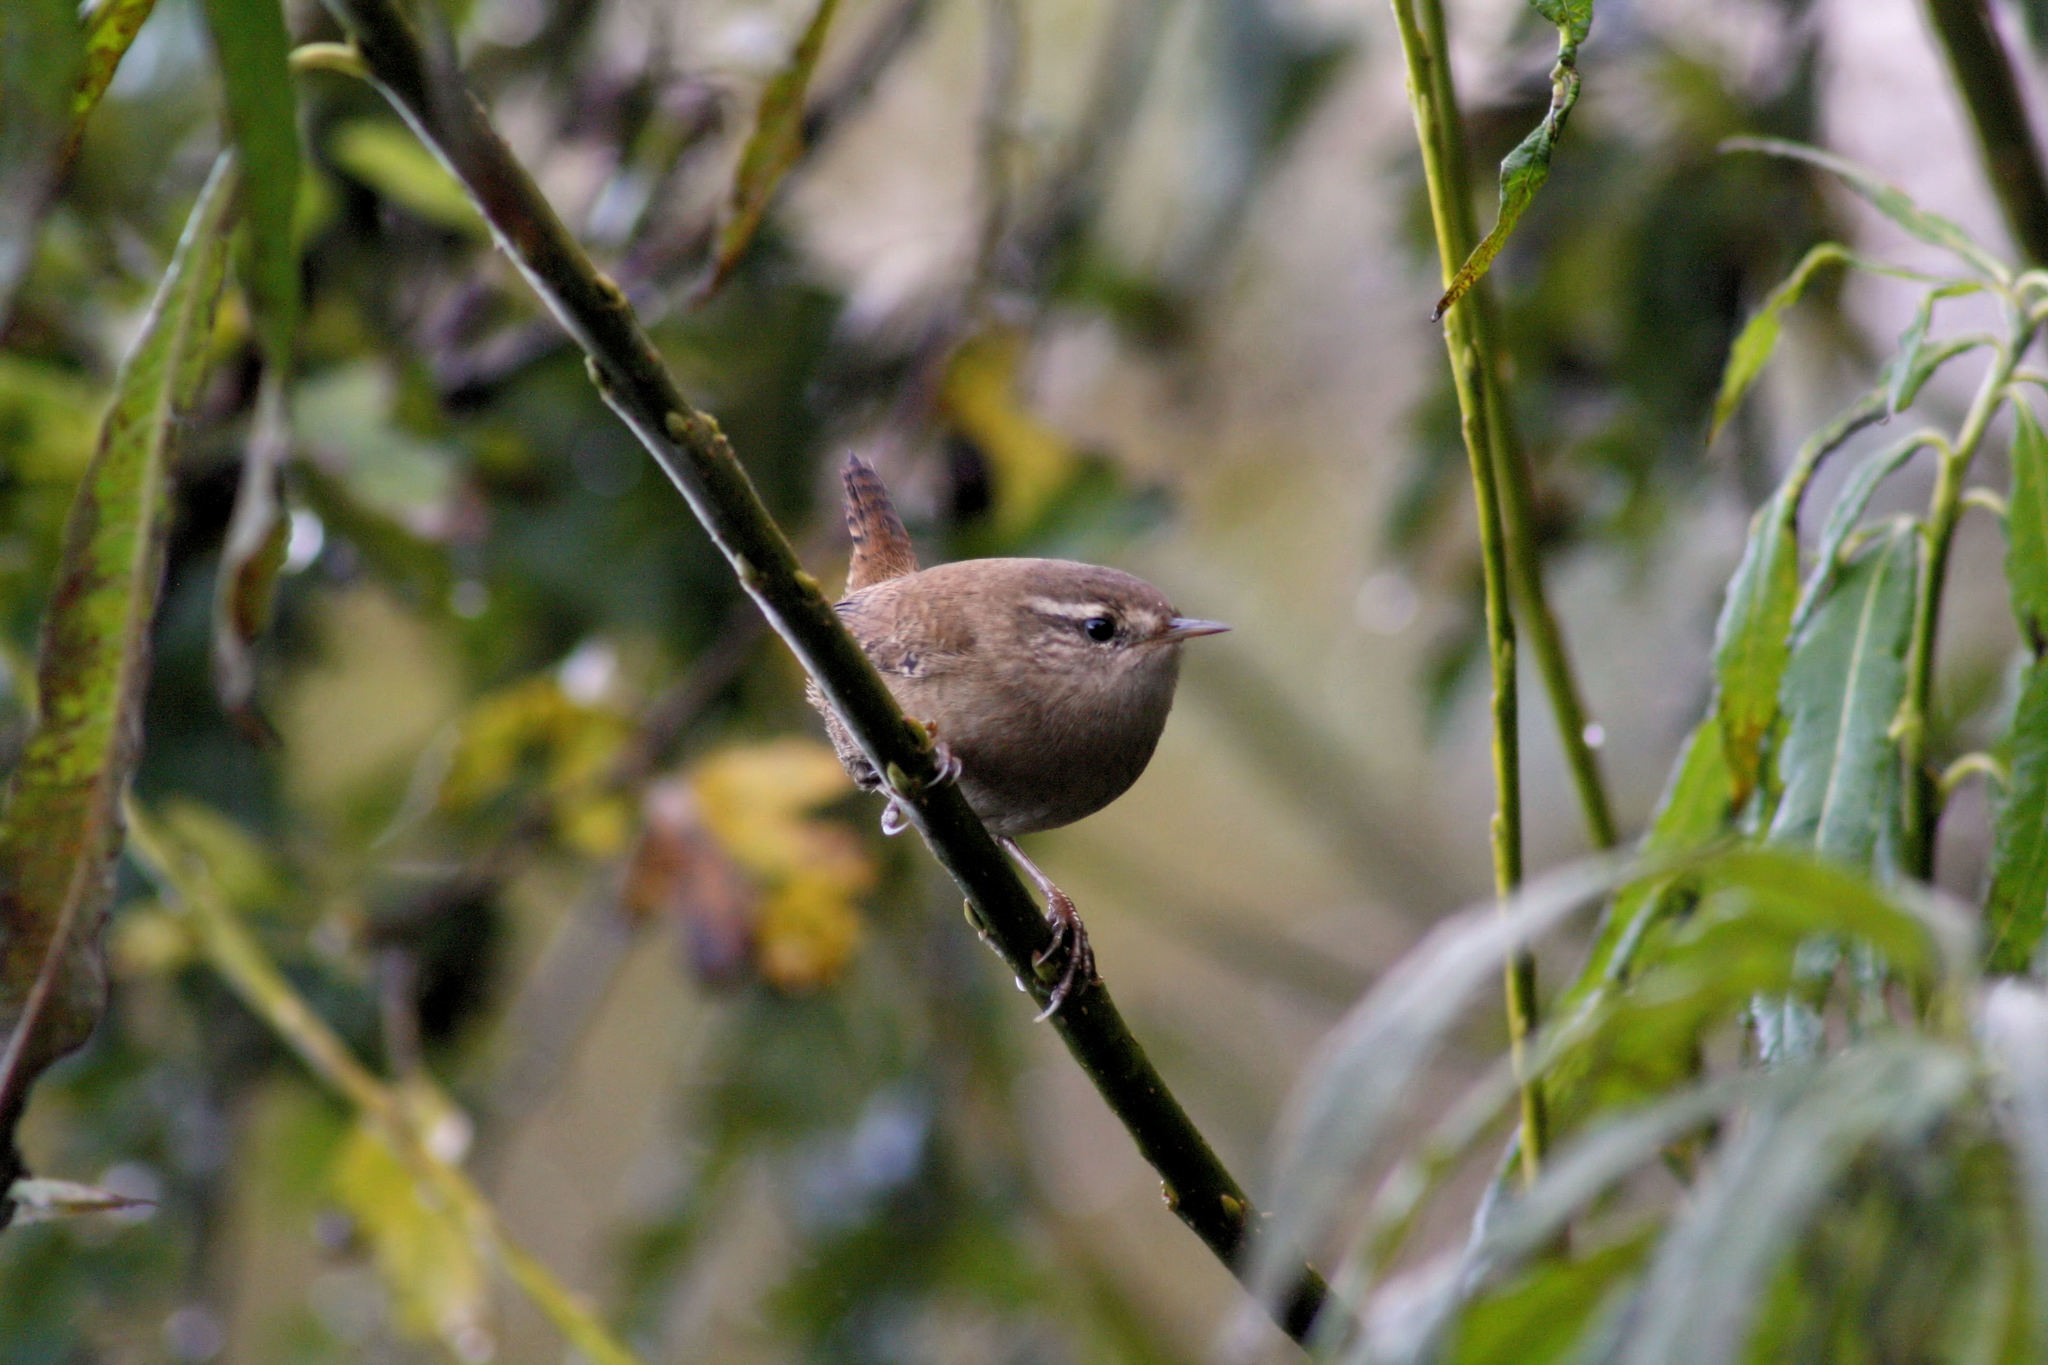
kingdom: Animalia
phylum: Chordata
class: Aves
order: Passeriformes
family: Troglodytidae
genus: Troglodytes
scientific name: Troglodytes troglodytes
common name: Eurasian wren
